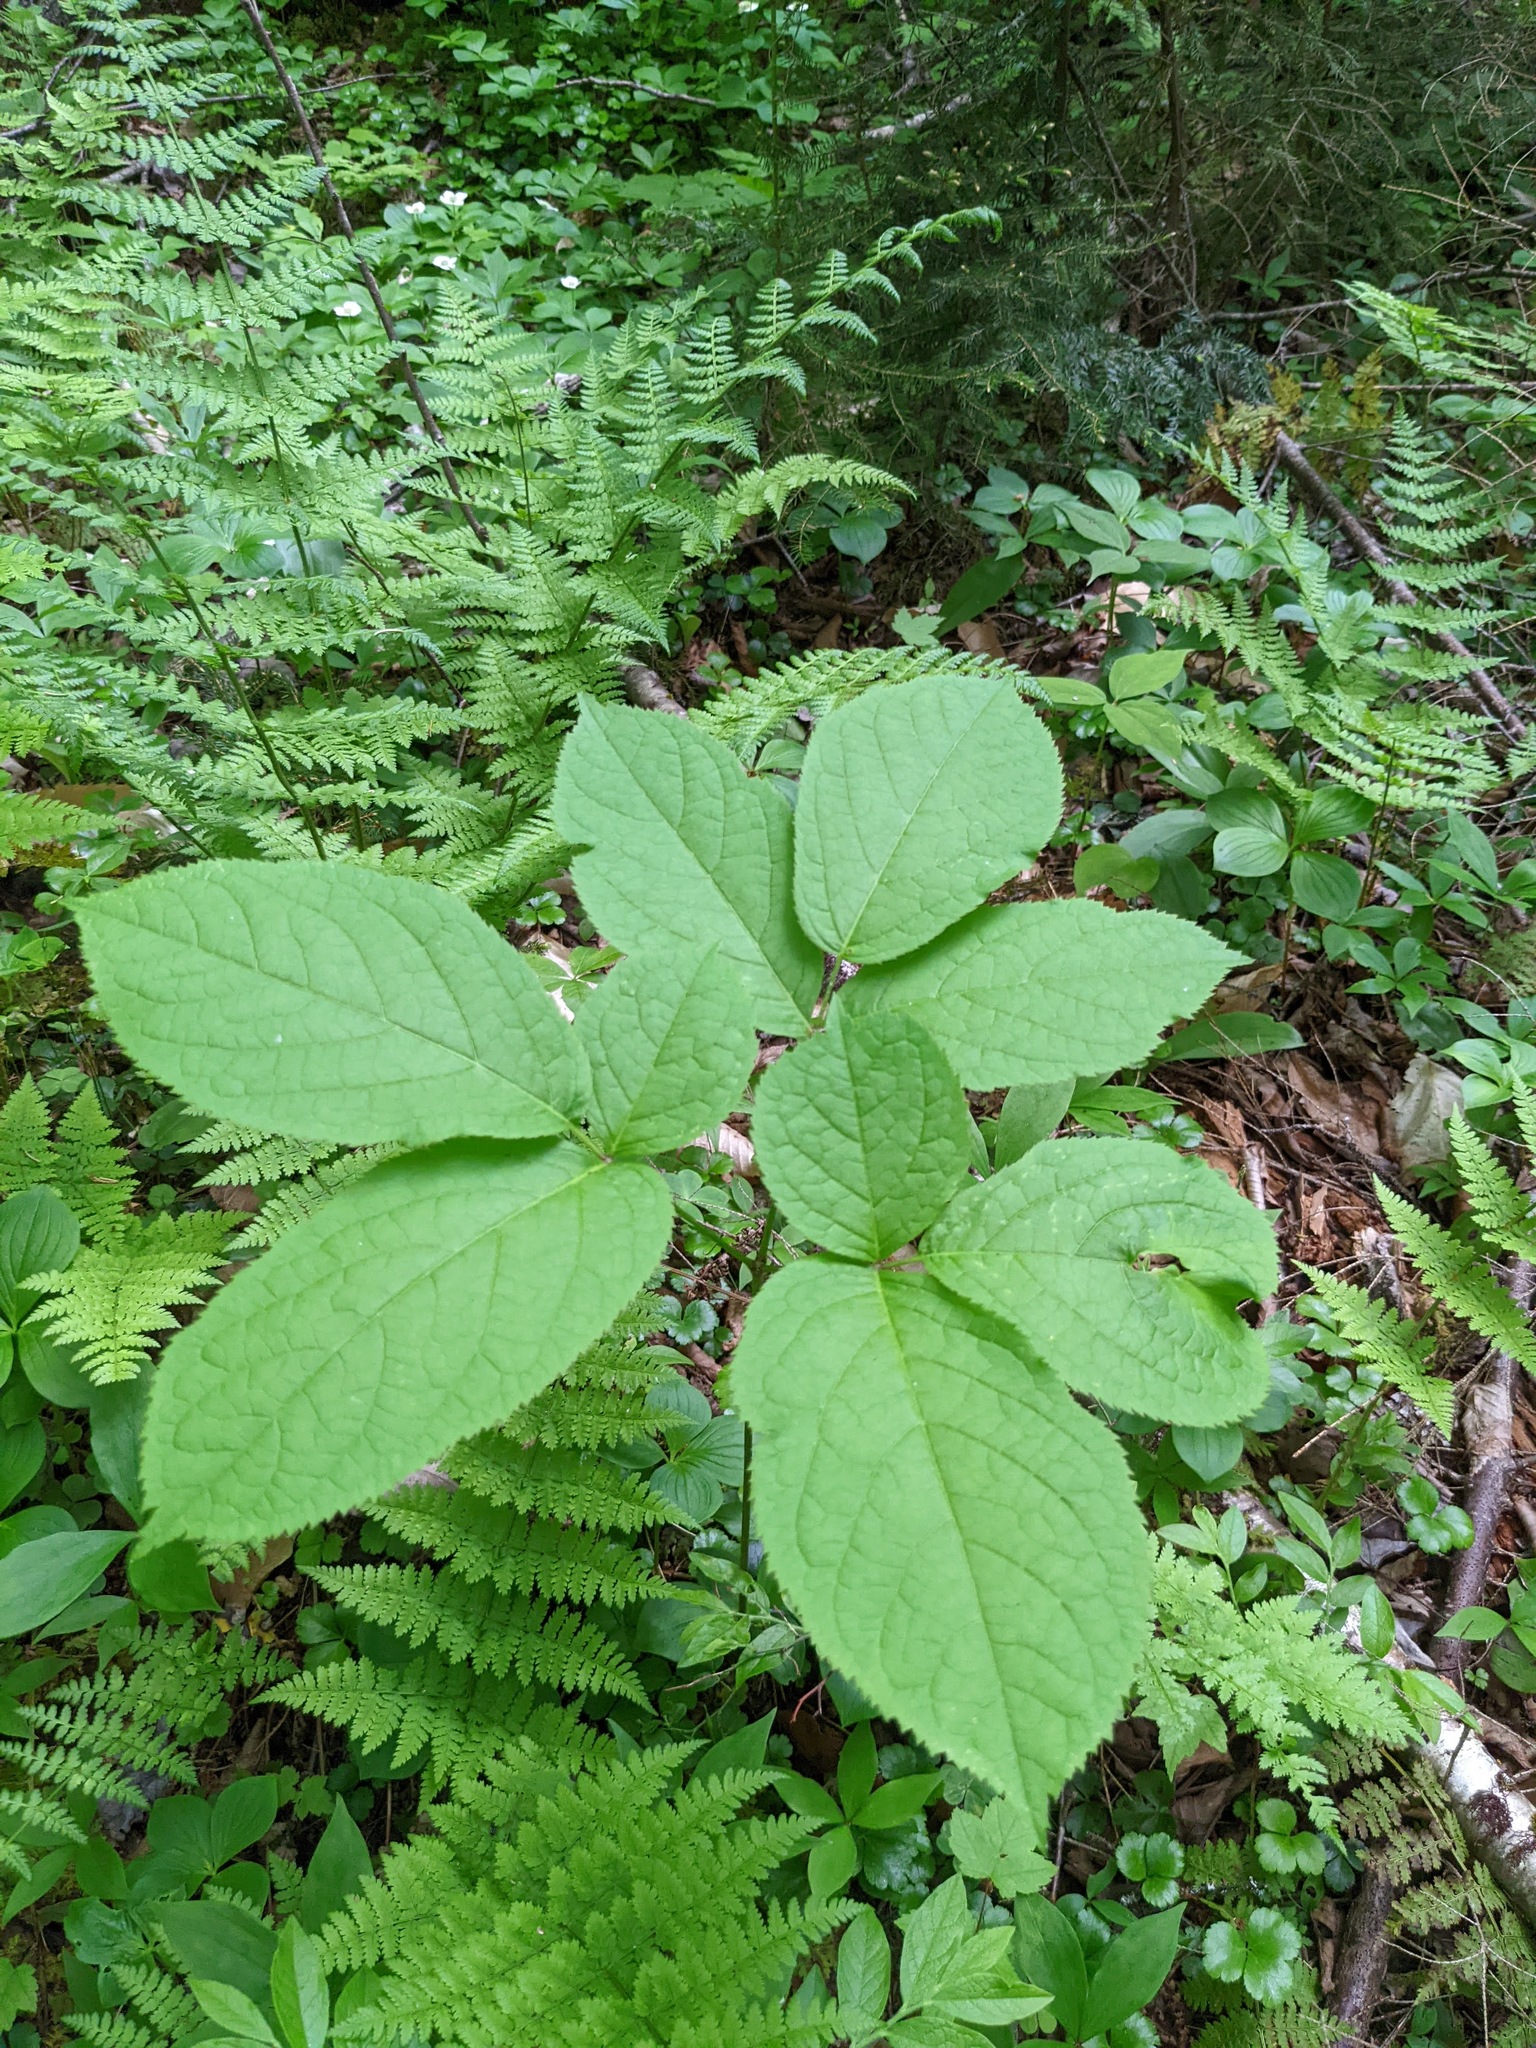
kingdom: Plantae
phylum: Tracheophyta
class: Magnoliopsida
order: Apiales
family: Araliaceae
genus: Aralia
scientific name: Aralia nudicaulis
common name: Wild sarsaparilla
